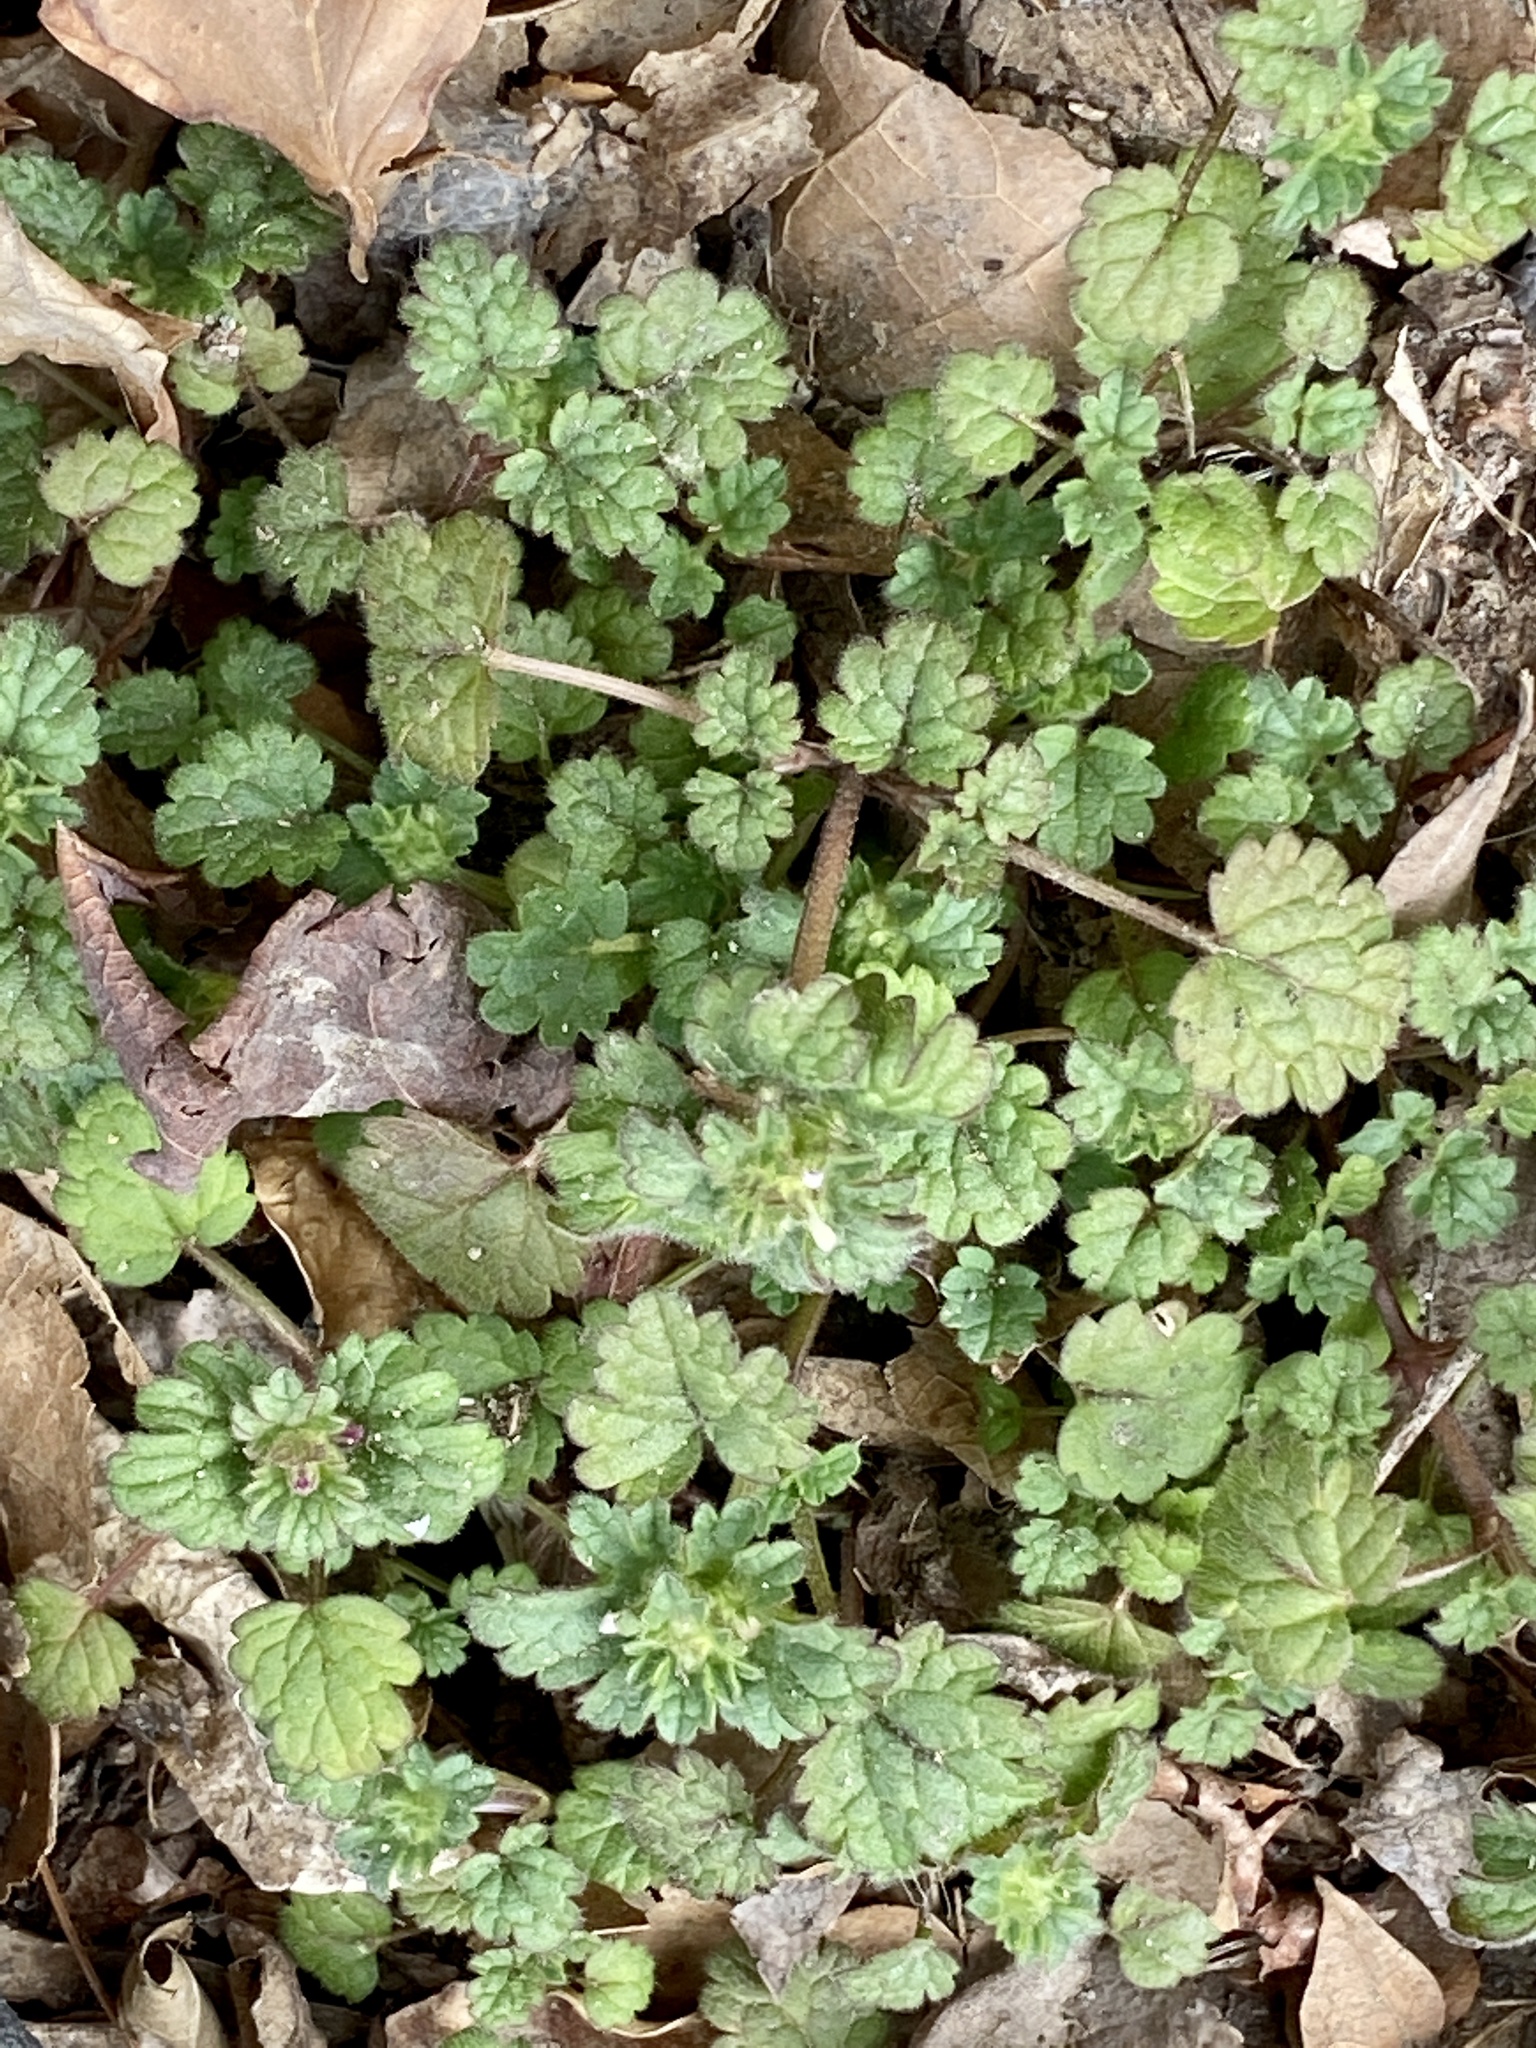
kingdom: Plantae
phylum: Tracheophyta
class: Magnoliopsida
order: Lamiales
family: Lamiaceae
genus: Lamium
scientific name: Lamium amplexicaule
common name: Henbit dead-nettle
